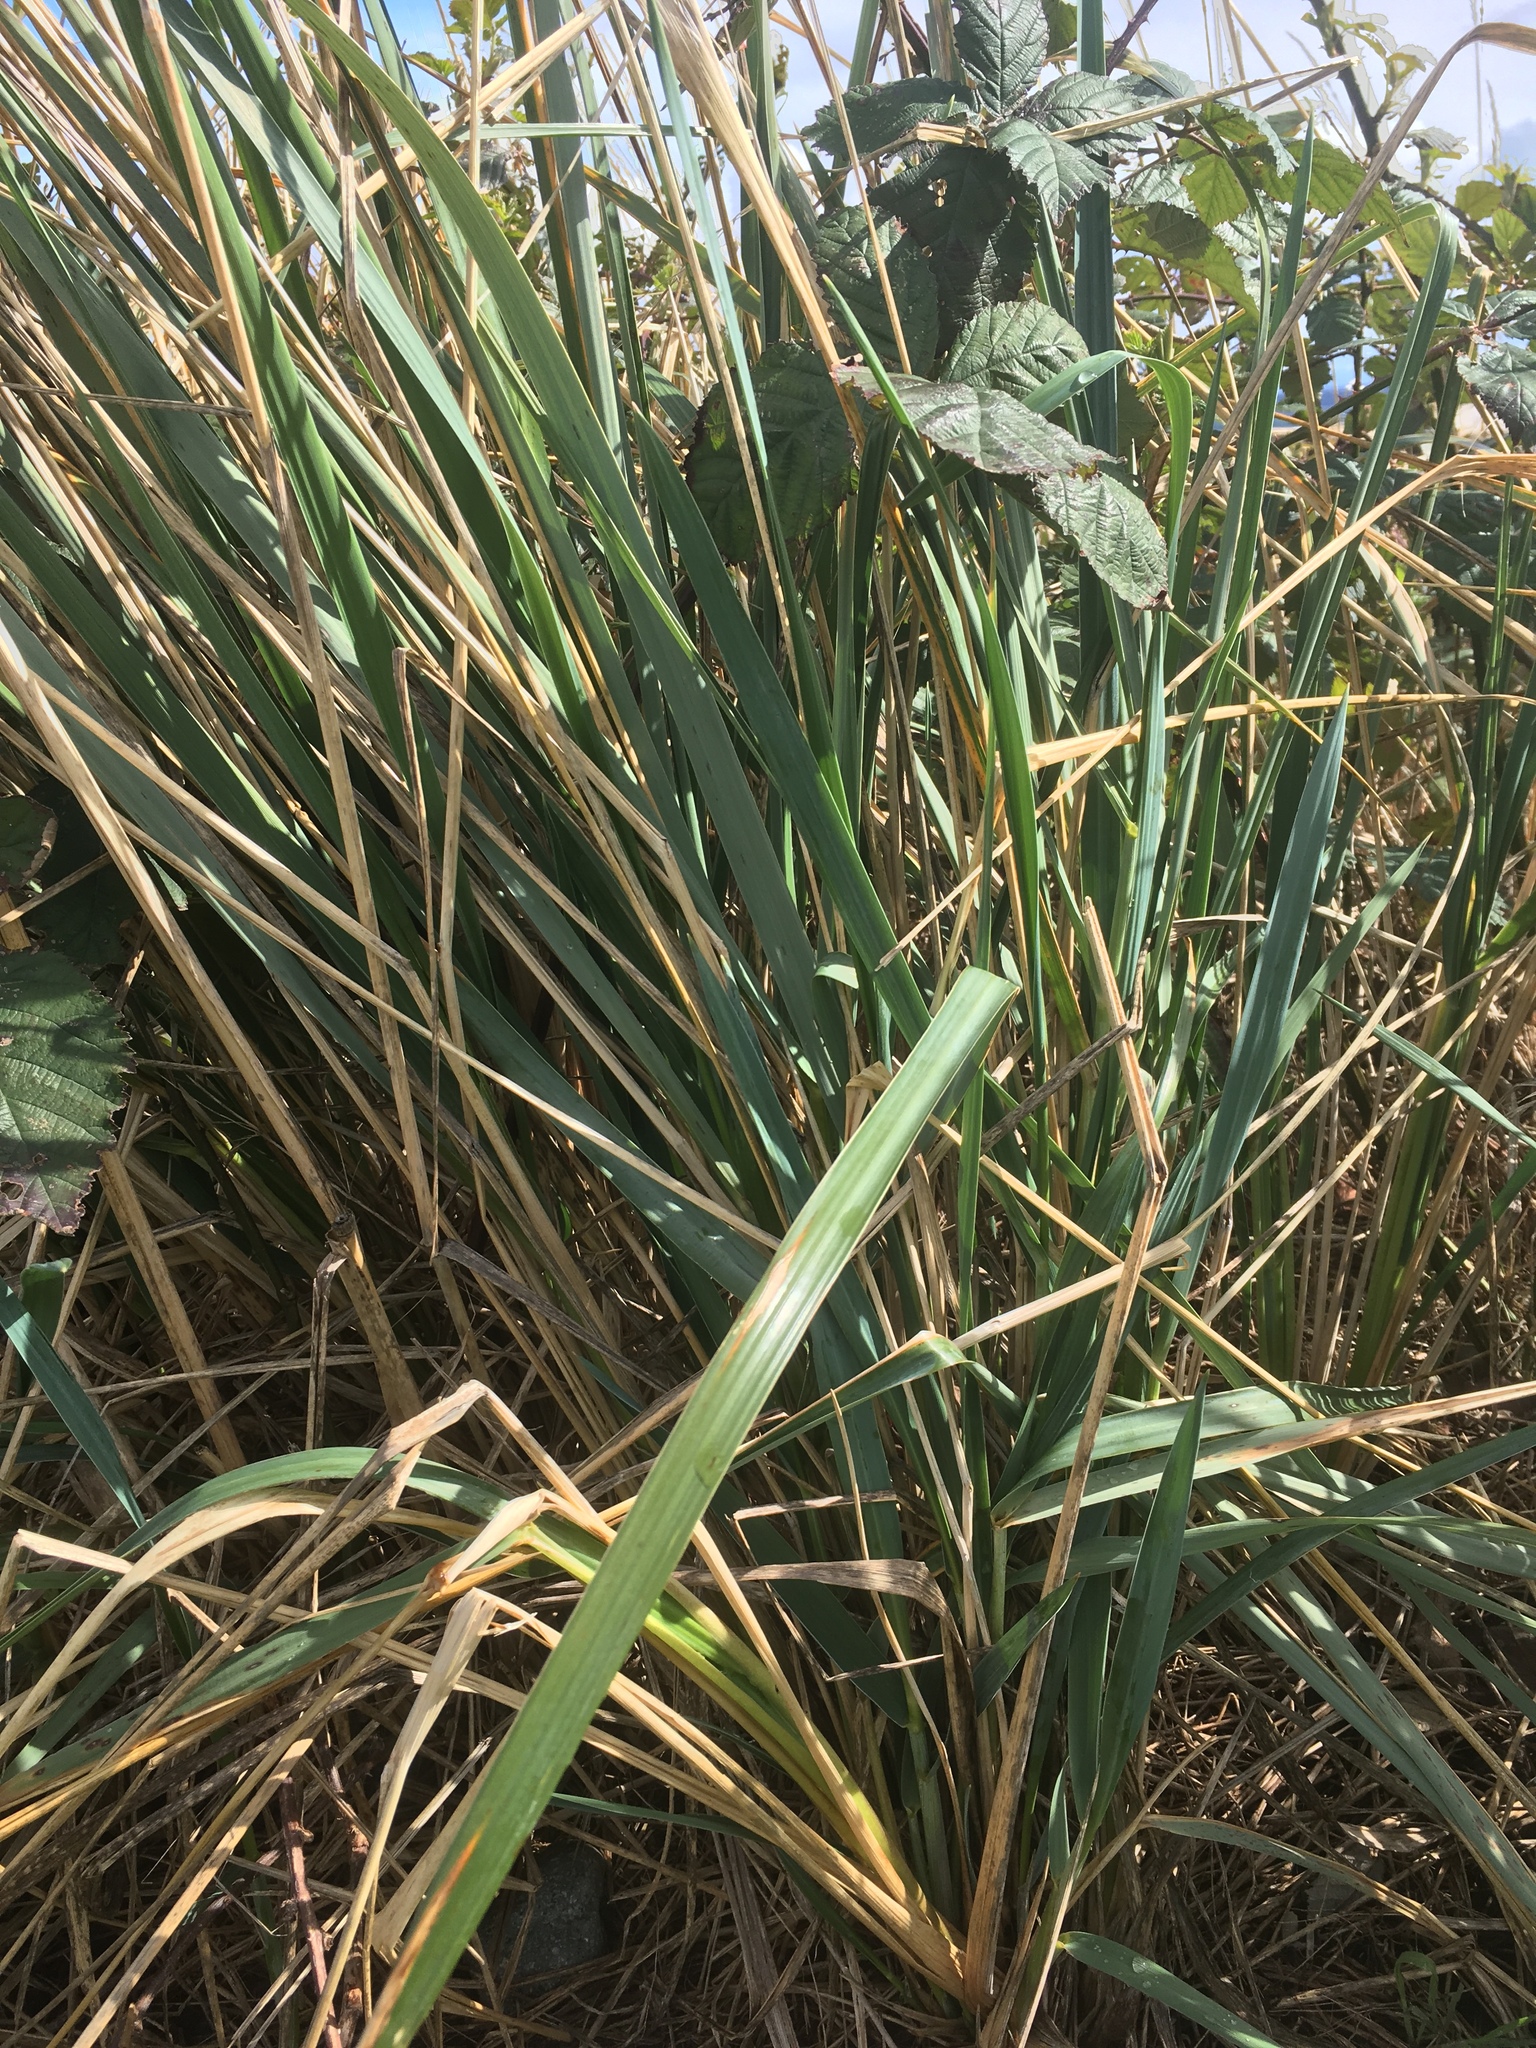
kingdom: Plantae
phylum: Tracheophyta
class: Liliopsida
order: Poales
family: Poaceae
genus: Leymus
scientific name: Leymus mollis
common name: American dune grass
